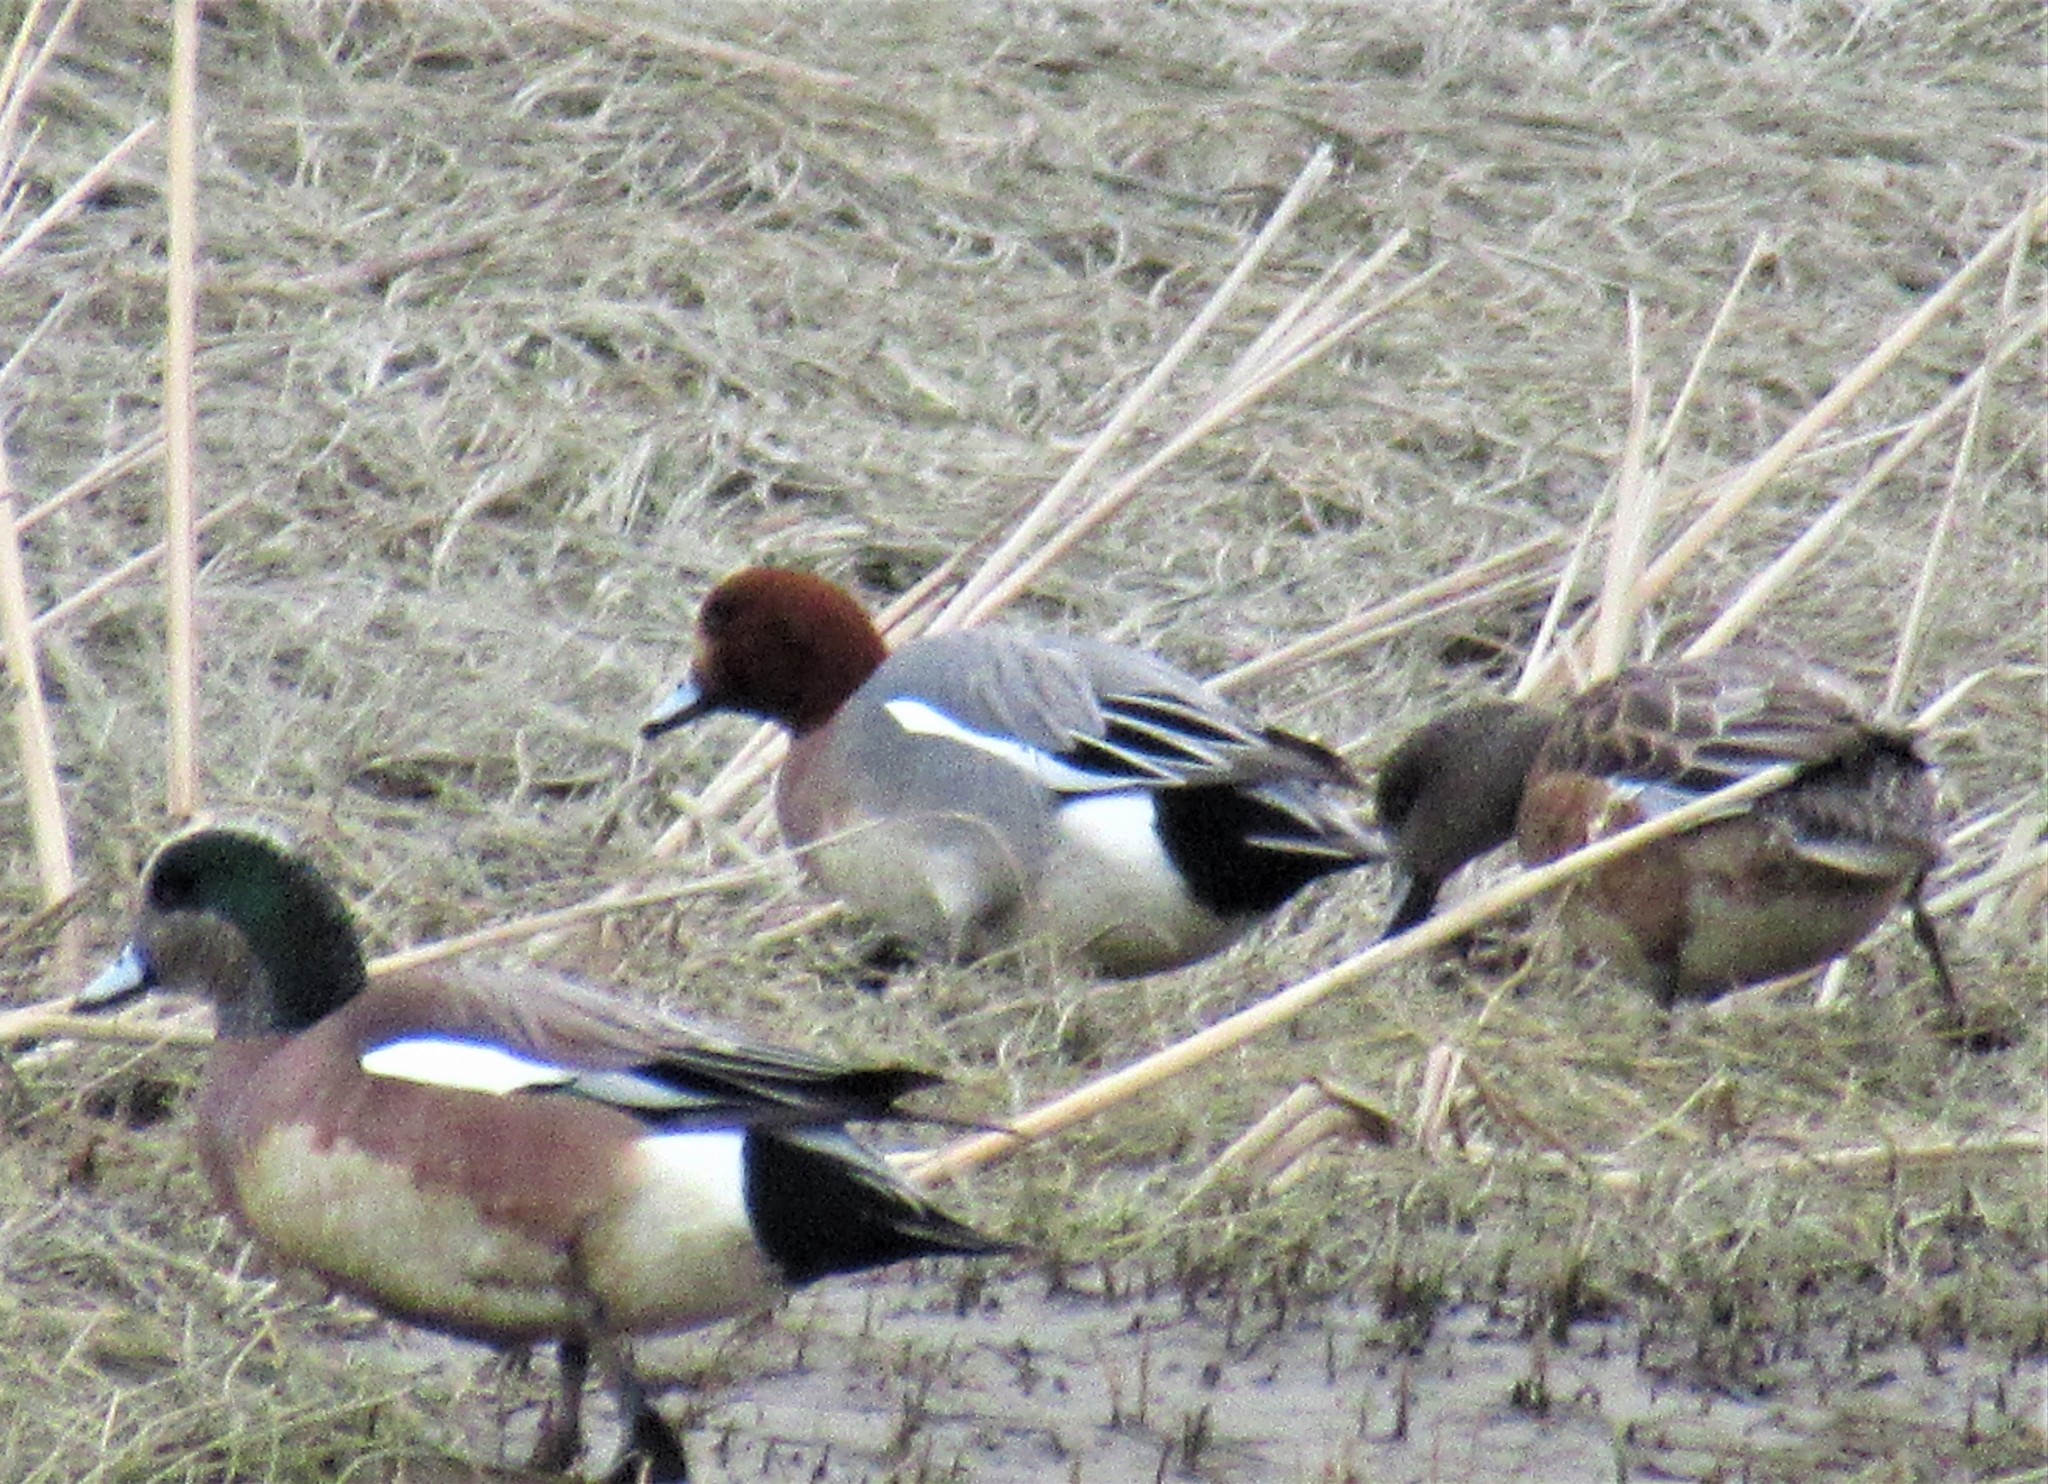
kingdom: Animalia
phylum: Chordata
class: Aves
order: Anseriformes
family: Anatidae
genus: Mareca
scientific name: Mareca penelope
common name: Eurasian wigeon
